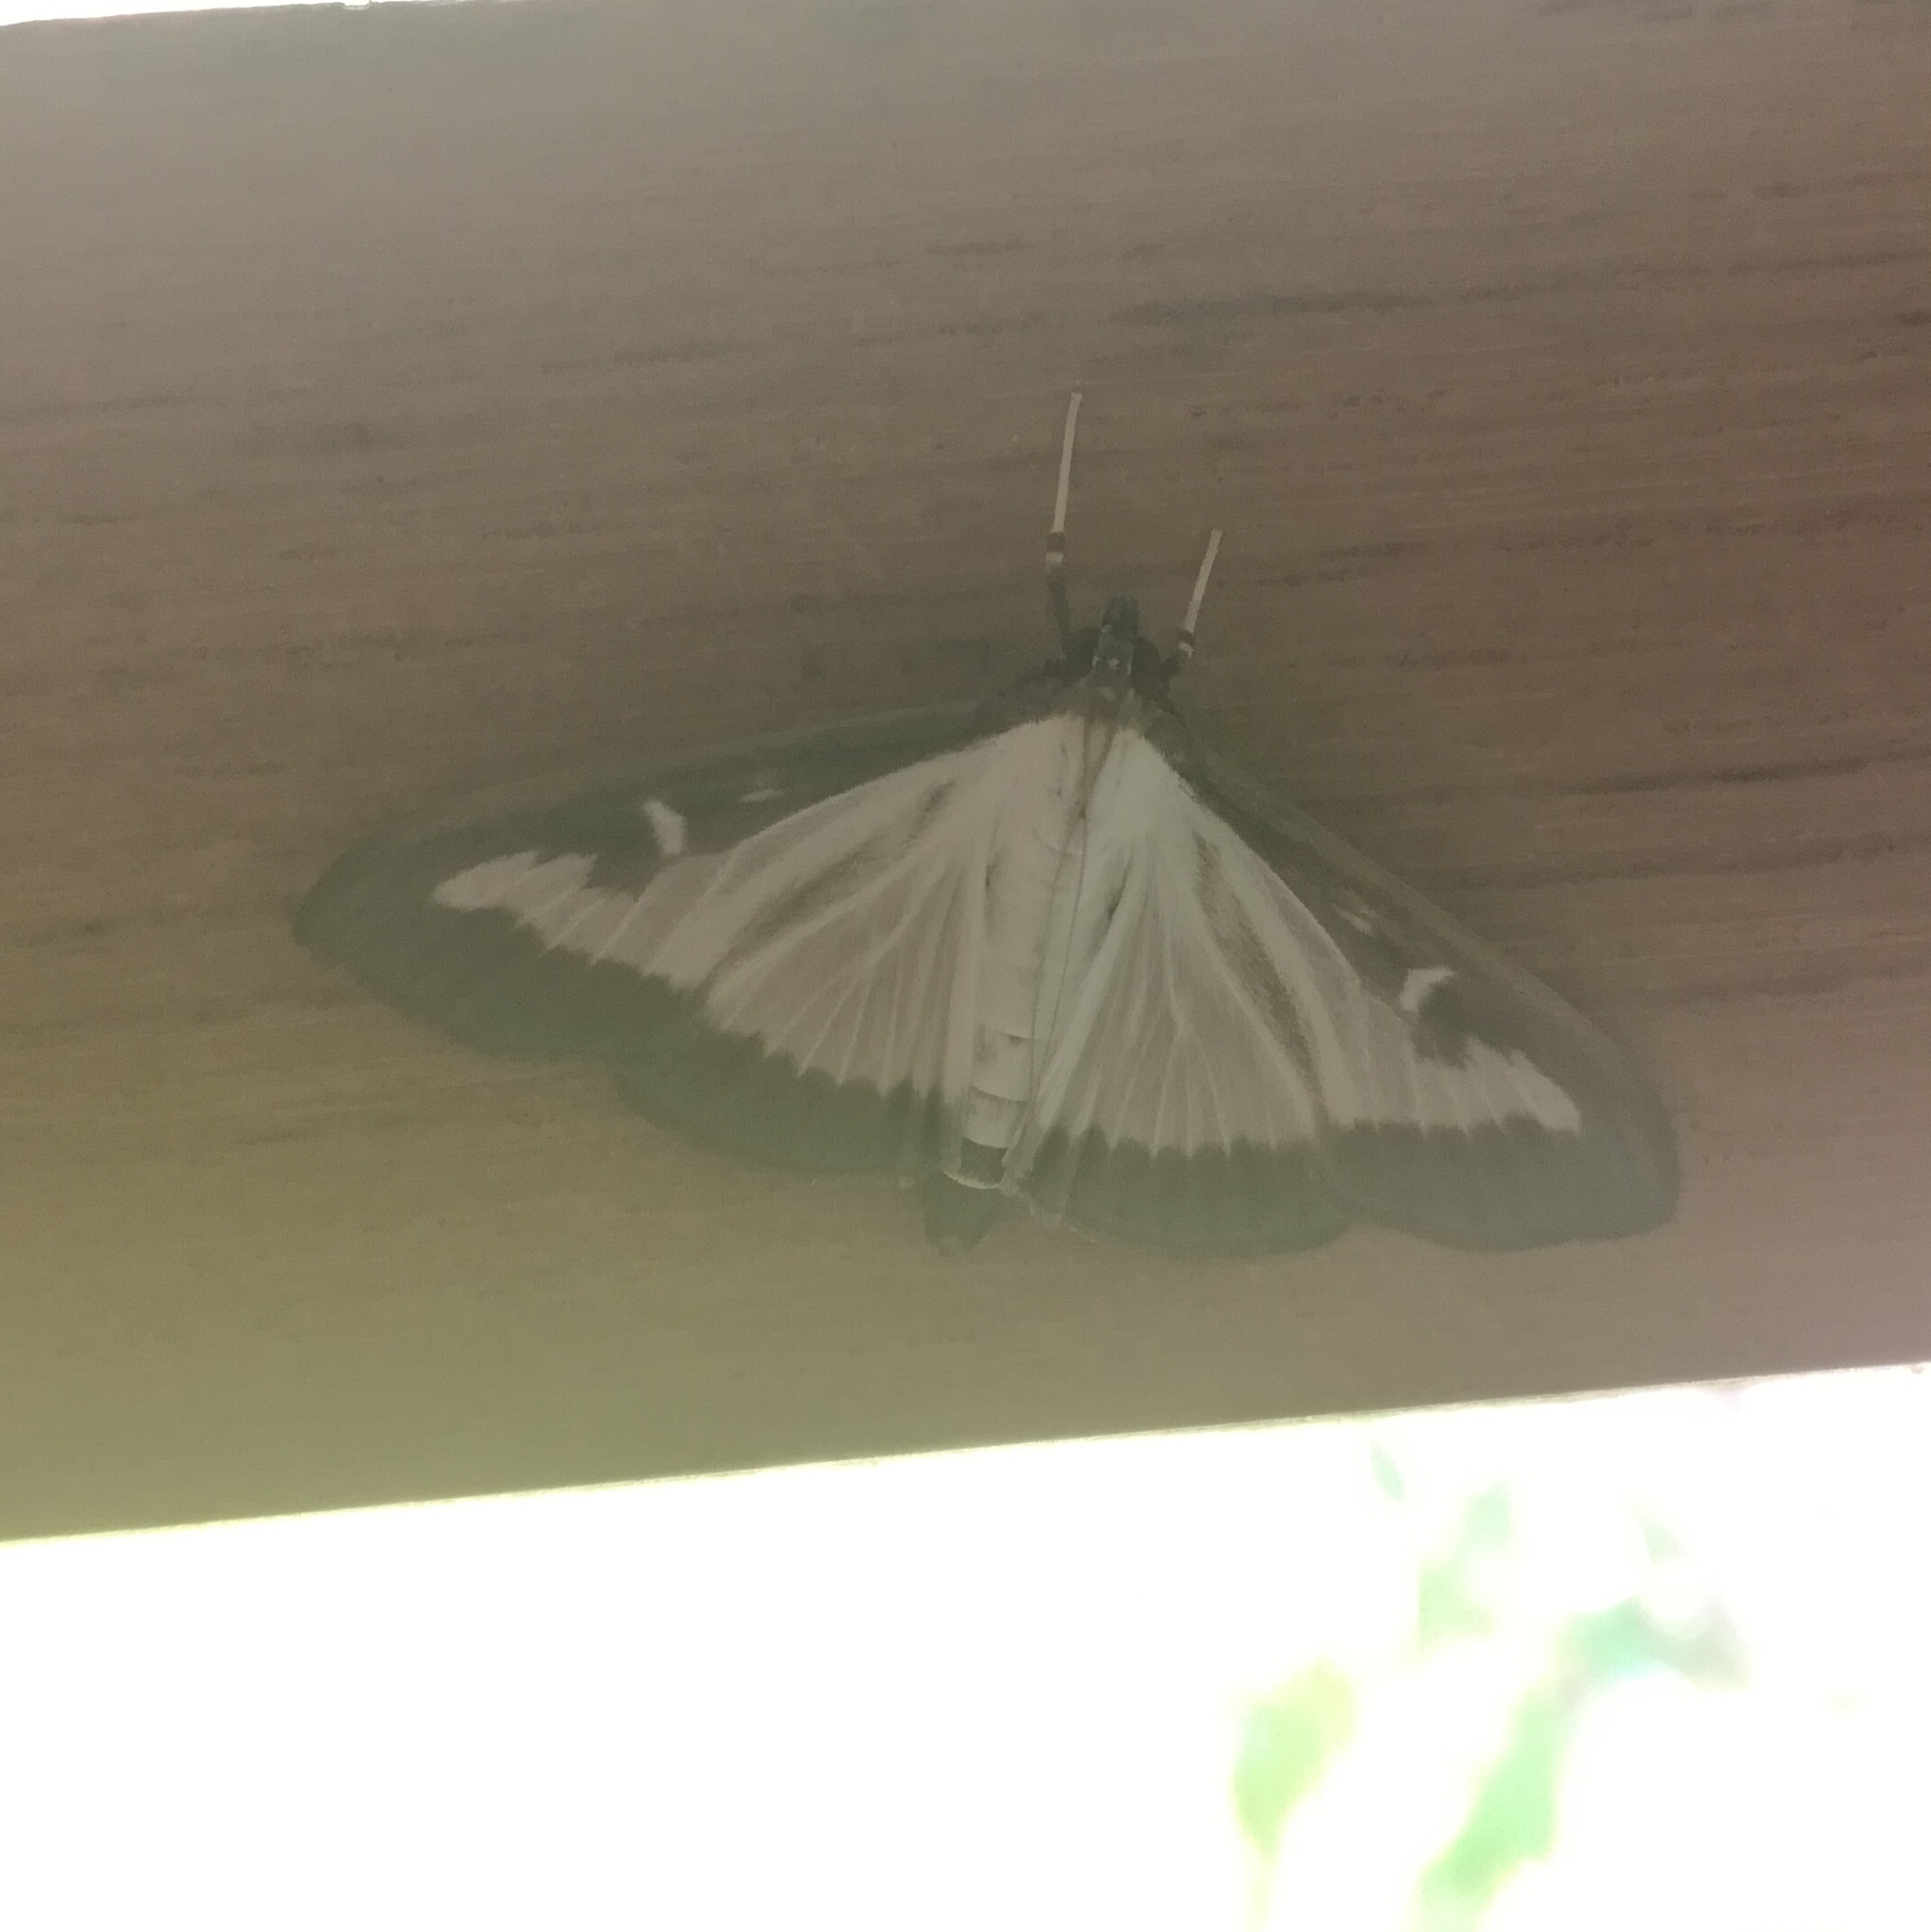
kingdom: Animalia
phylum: Arthropoda
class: Insecta
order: Lepidoptera
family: Crambidae
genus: Cydalima
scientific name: Cydalima perspectalis
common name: Box tree moth
